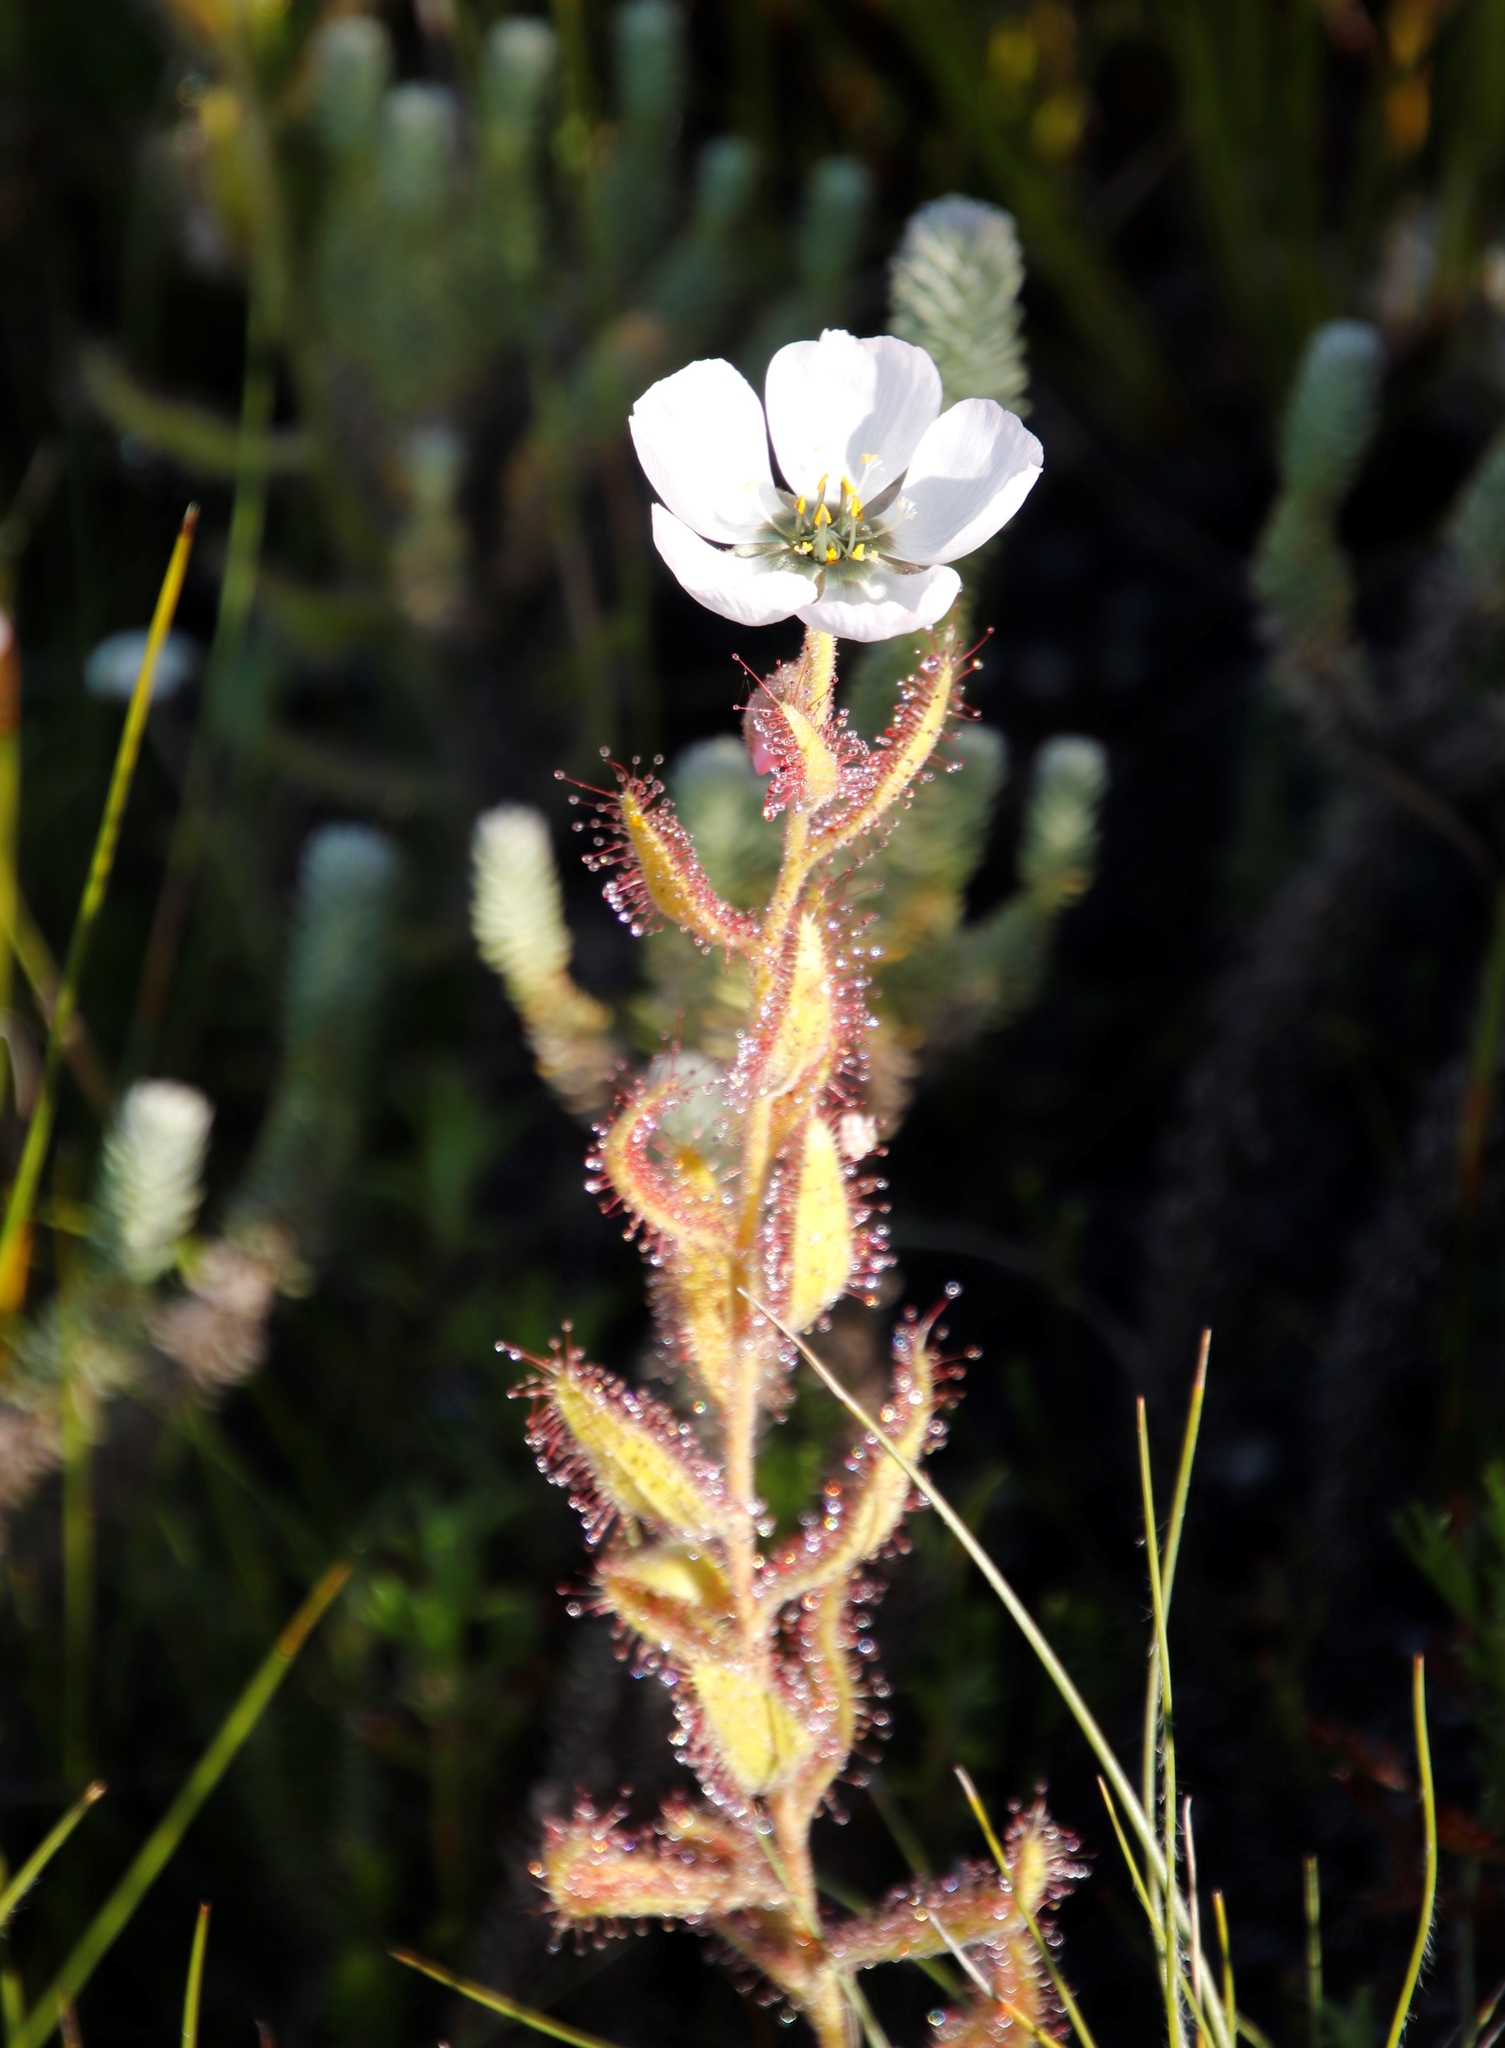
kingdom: Plantae
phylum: Tracheophyta
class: Magnoliopsida
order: Caryophyllales
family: Droseraceae
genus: Drosera
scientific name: Drosera cistiflora
